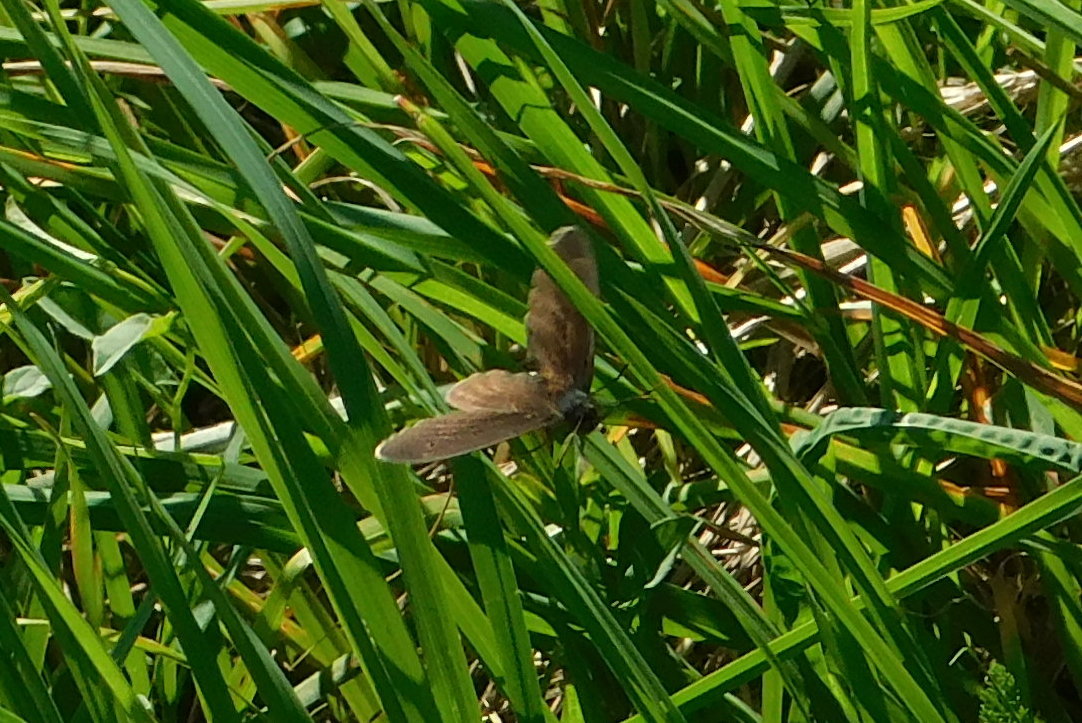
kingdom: Animalia
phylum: Arthropoda
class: Insecta
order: Lepidoptera
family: Nymphalidae
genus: Aphantopus
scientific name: Aphantopus hyperantus
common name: Ringlet
